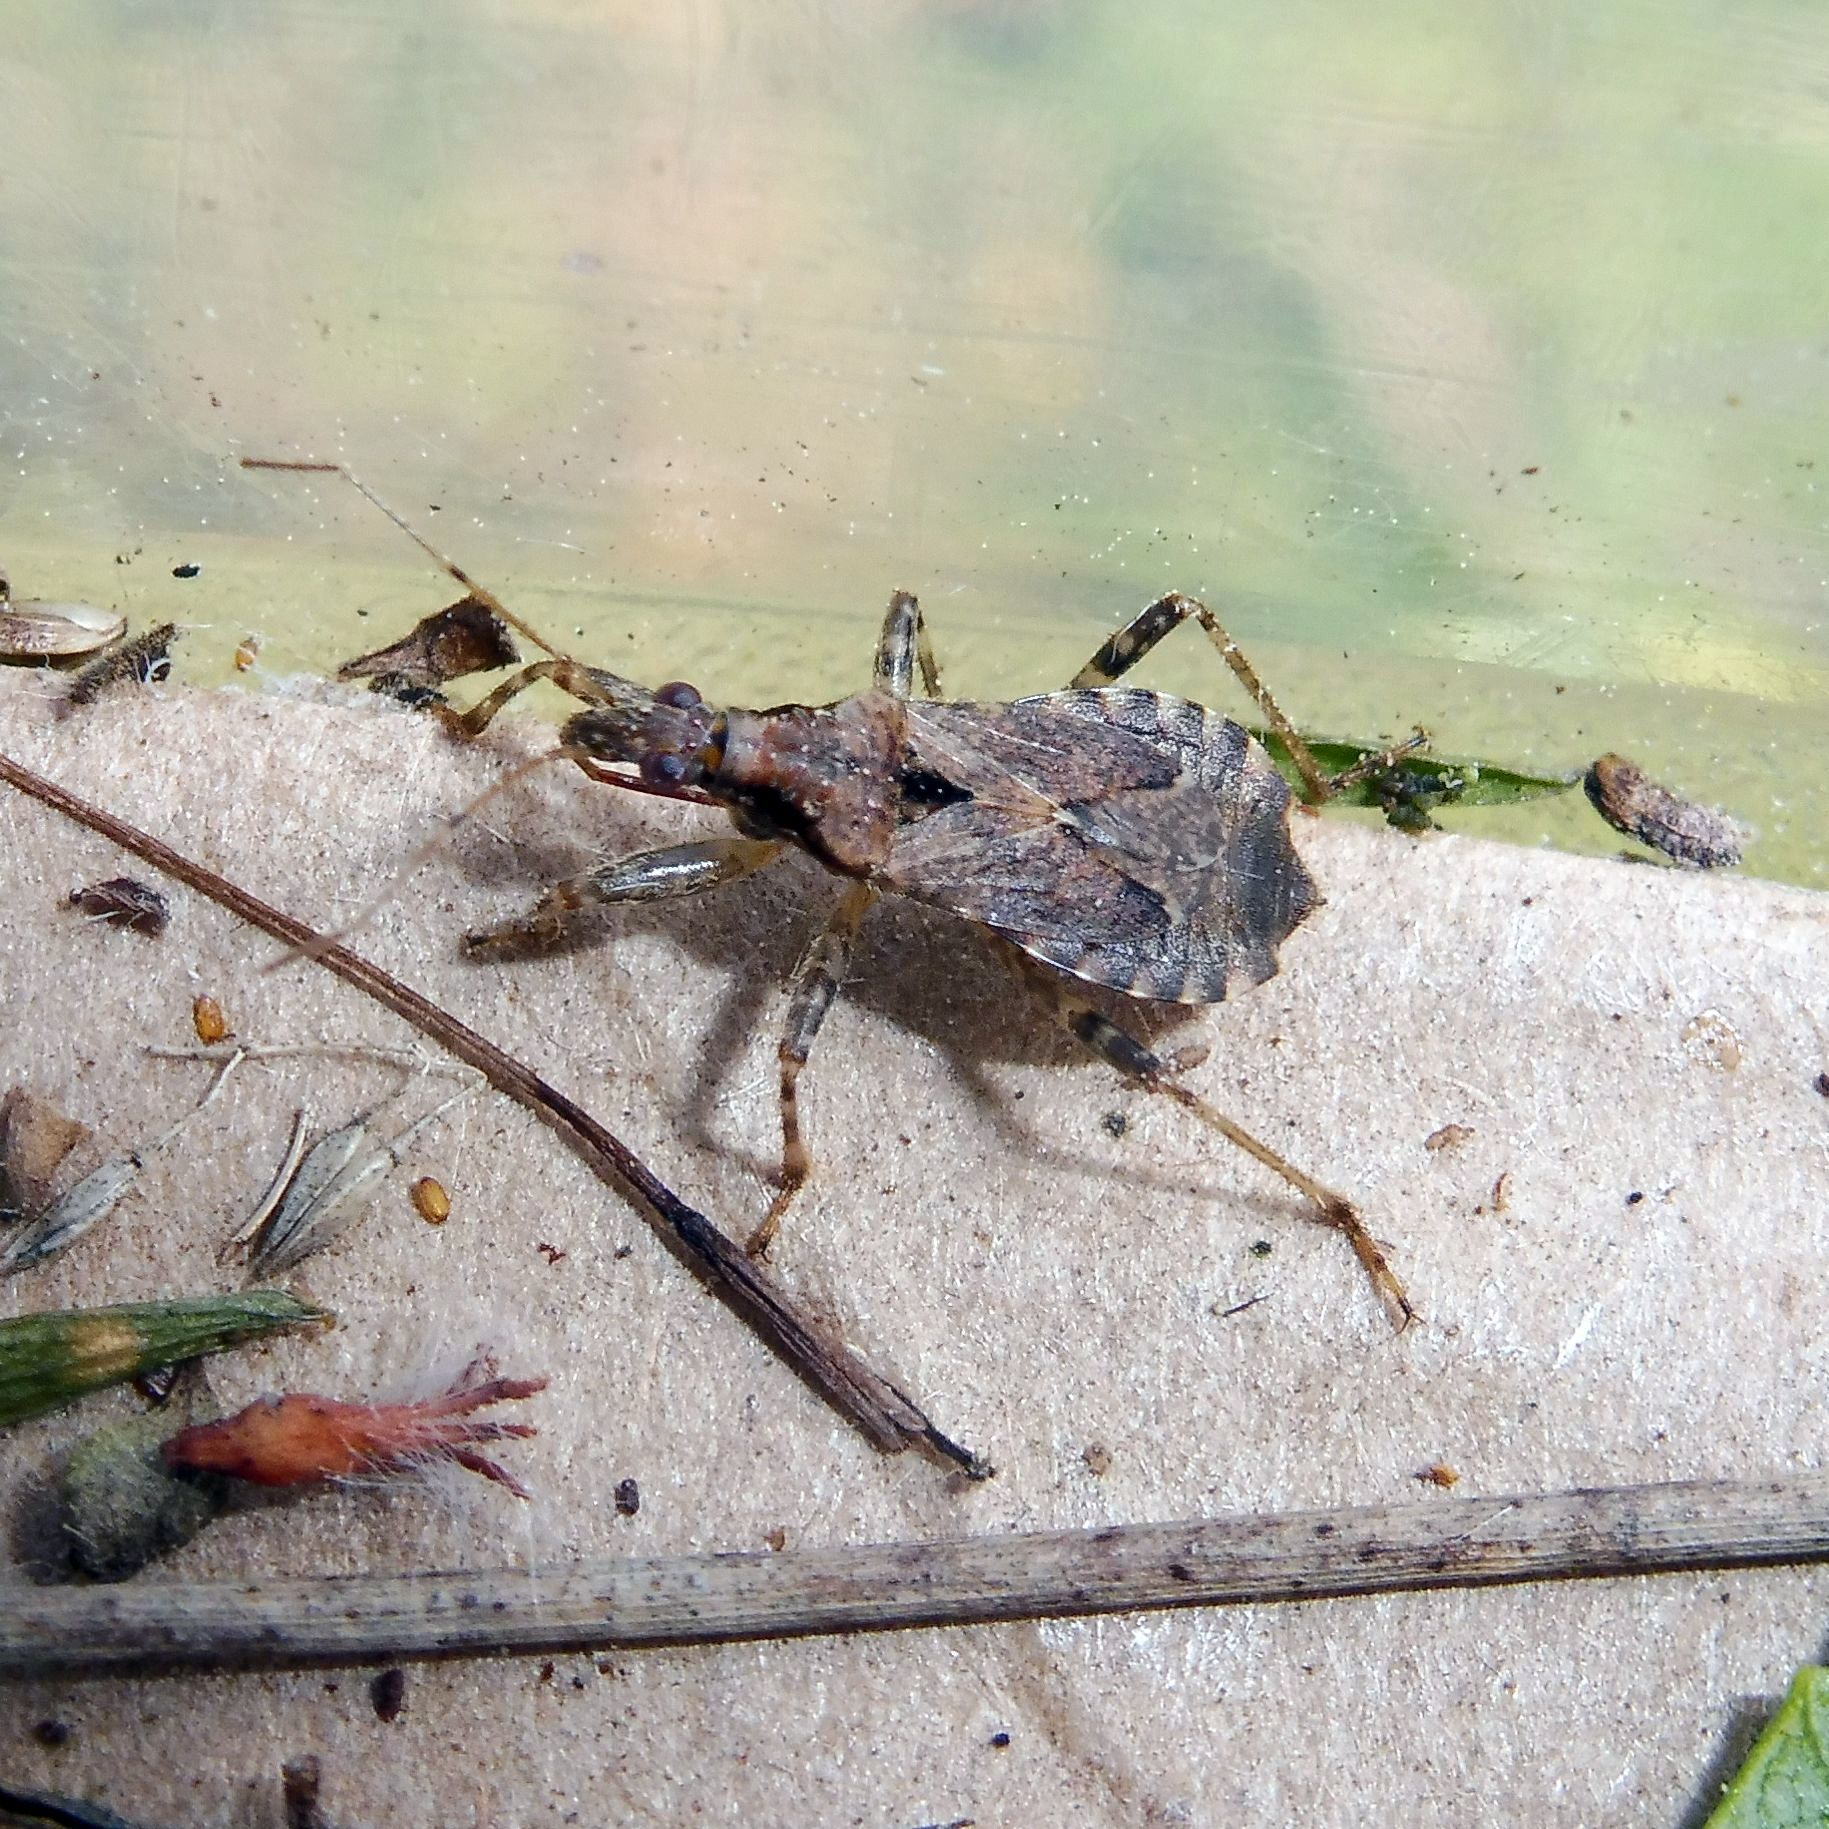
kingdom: Animalia
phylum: Arthropoda
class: Insecta
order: Hemiptera
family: Nabidae
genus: Himacerus
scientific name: Himacerus mirmicoides
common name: Ant damsel bug
